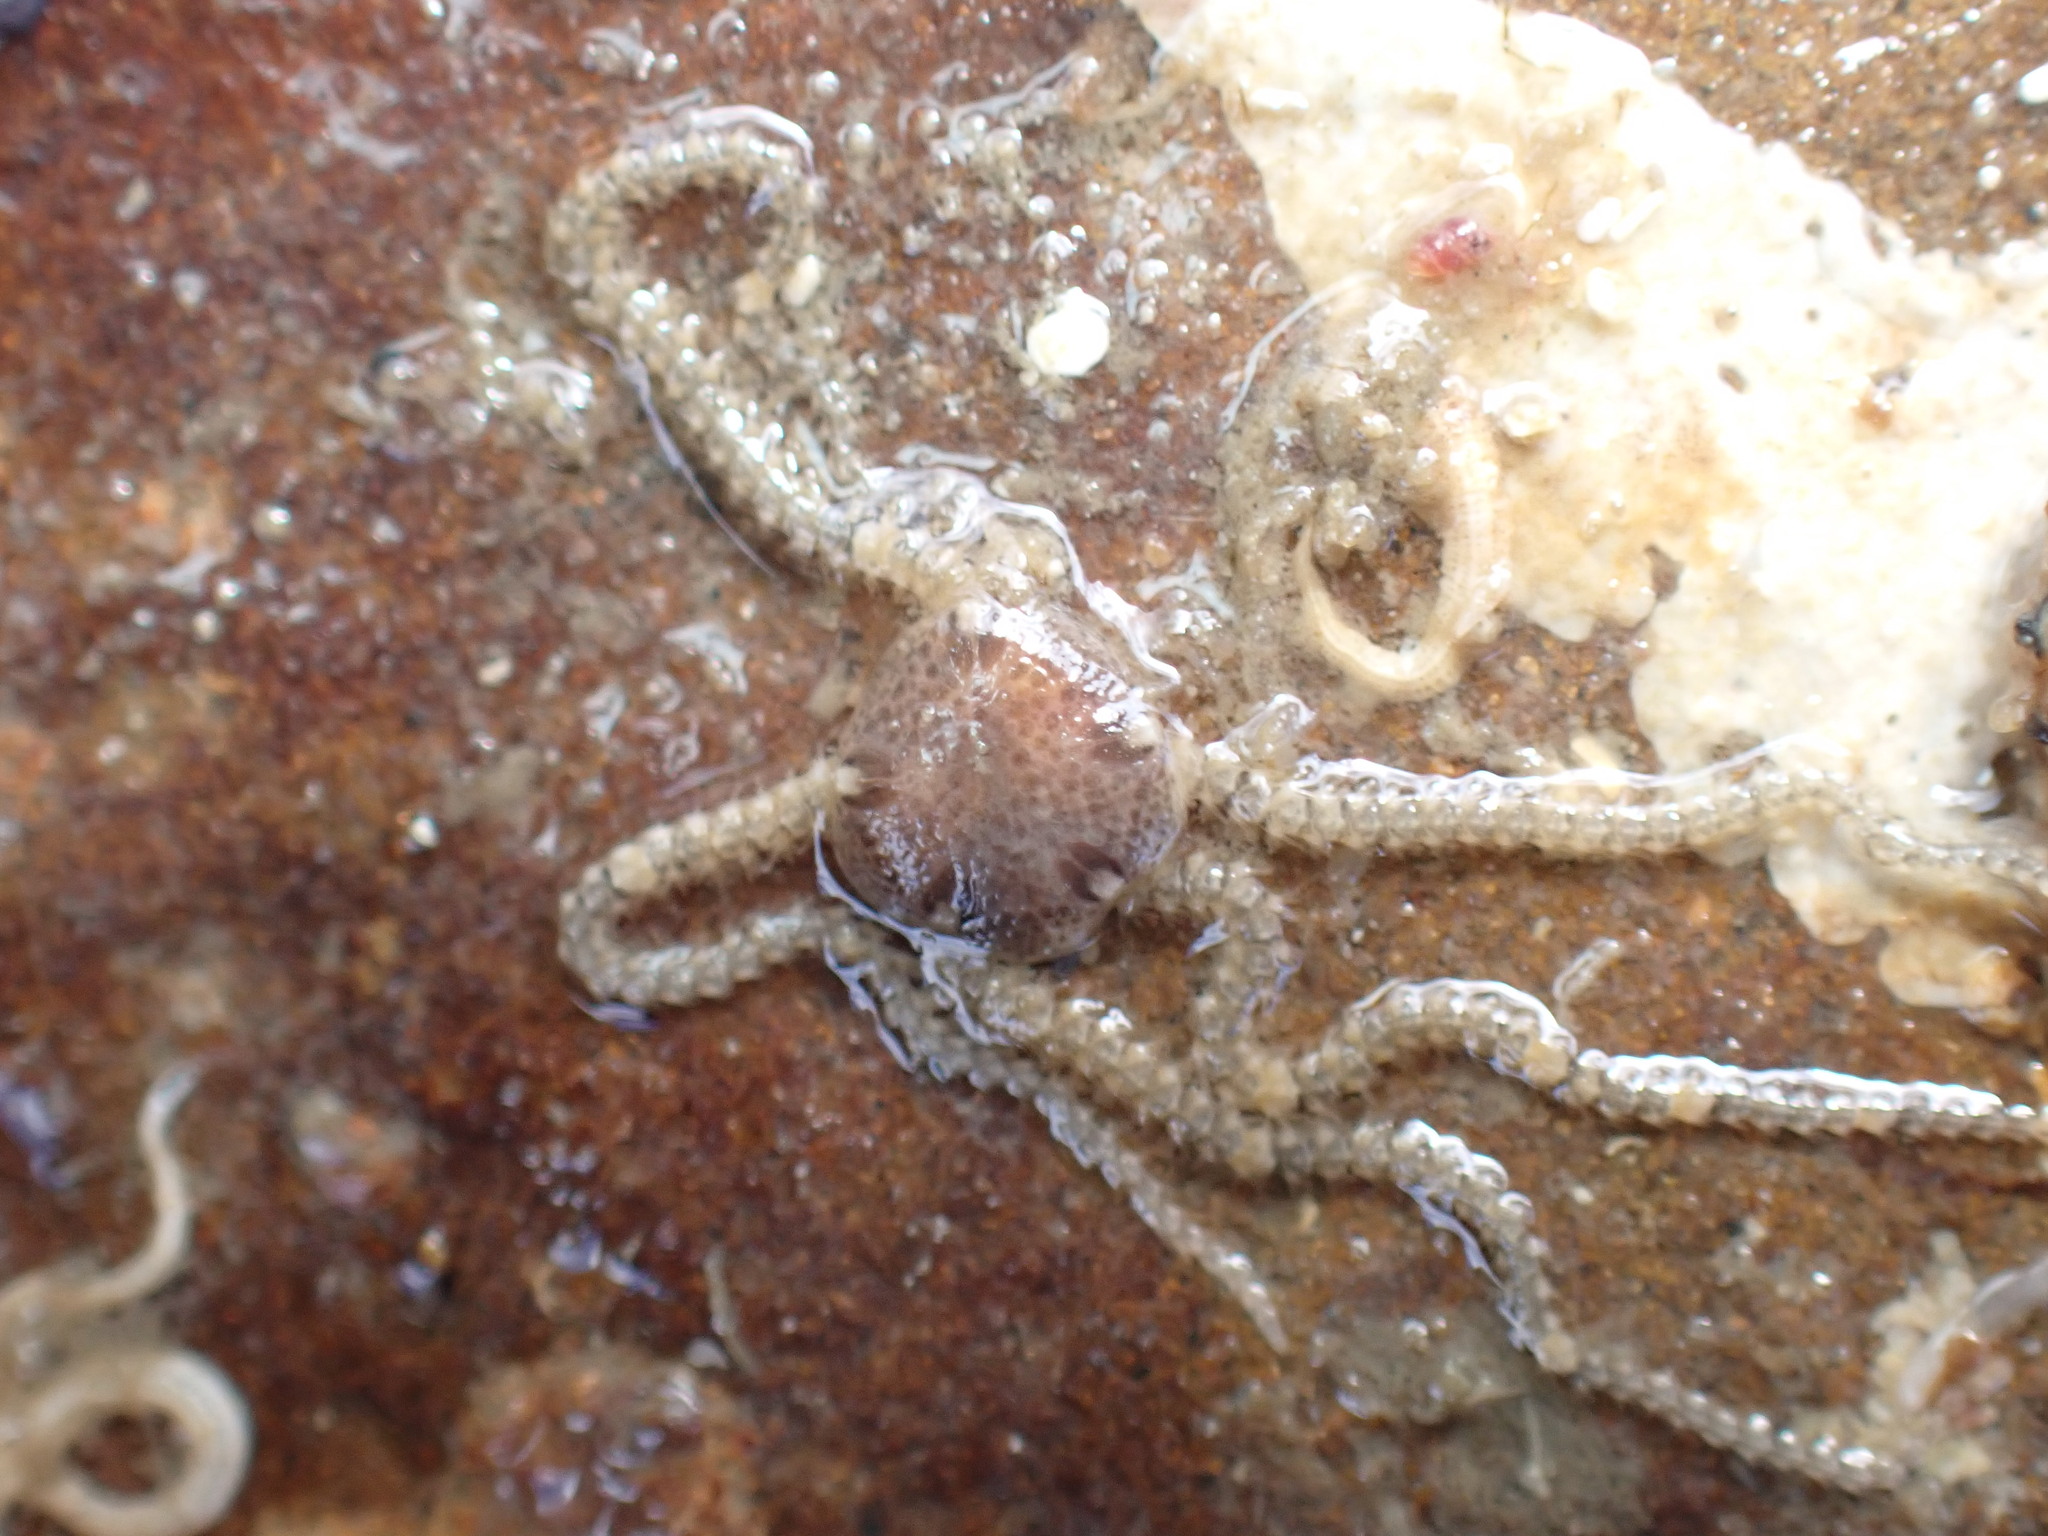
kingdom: Animalia
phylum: Echinodermata
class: Ophiuroidea
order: Amphilepidida
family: Amphiuridae
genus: Amphipholis
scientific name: Amphipholis squamata
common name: Brooding snake star
